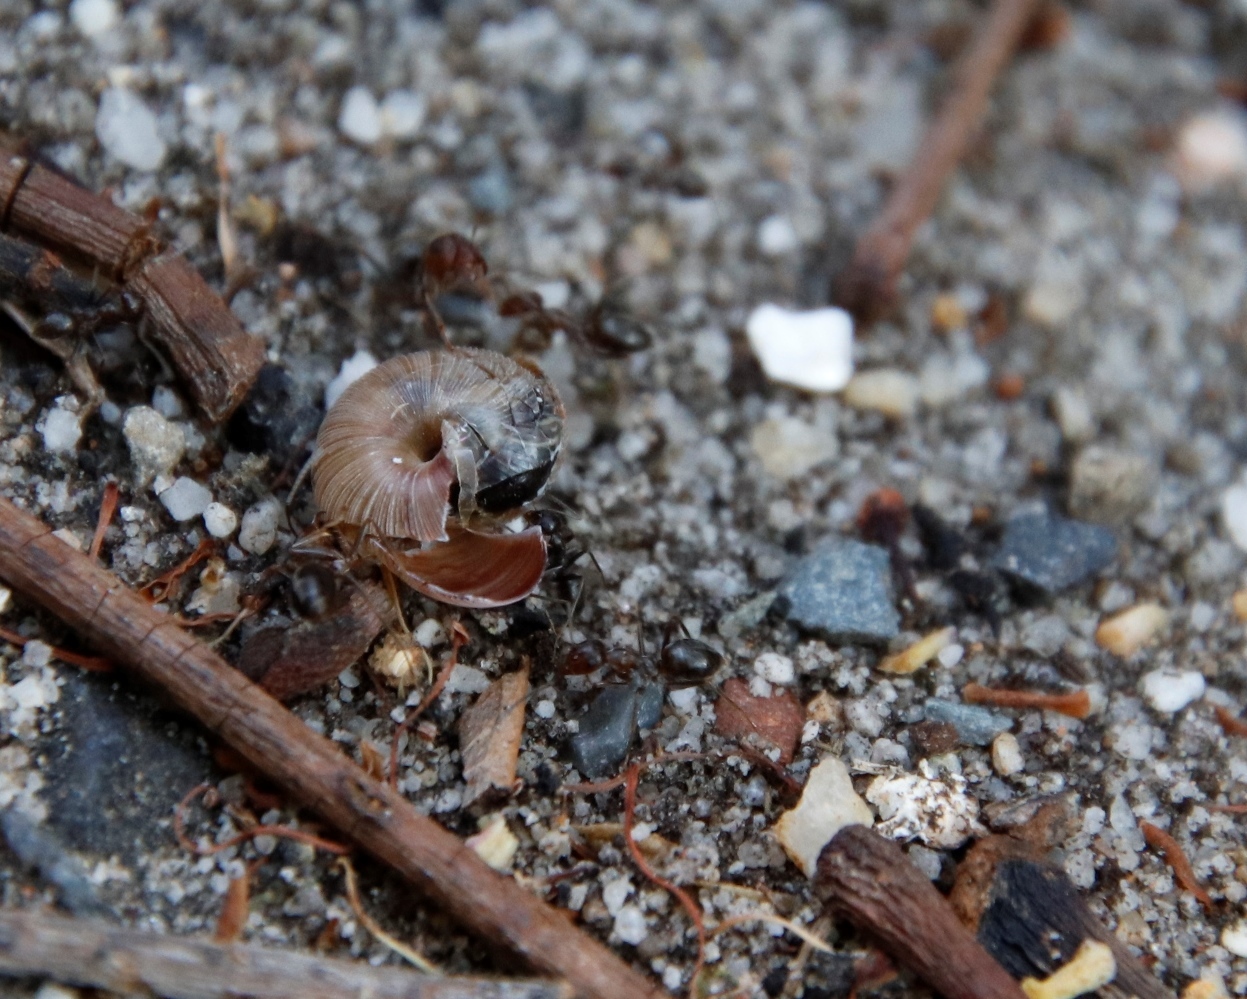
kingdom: Animalia
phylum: Arthropoda
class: Insecta
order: Hymenoptera
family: Formicidae
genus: Anoplolepis
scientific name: Anoplolepis steingroeveri
